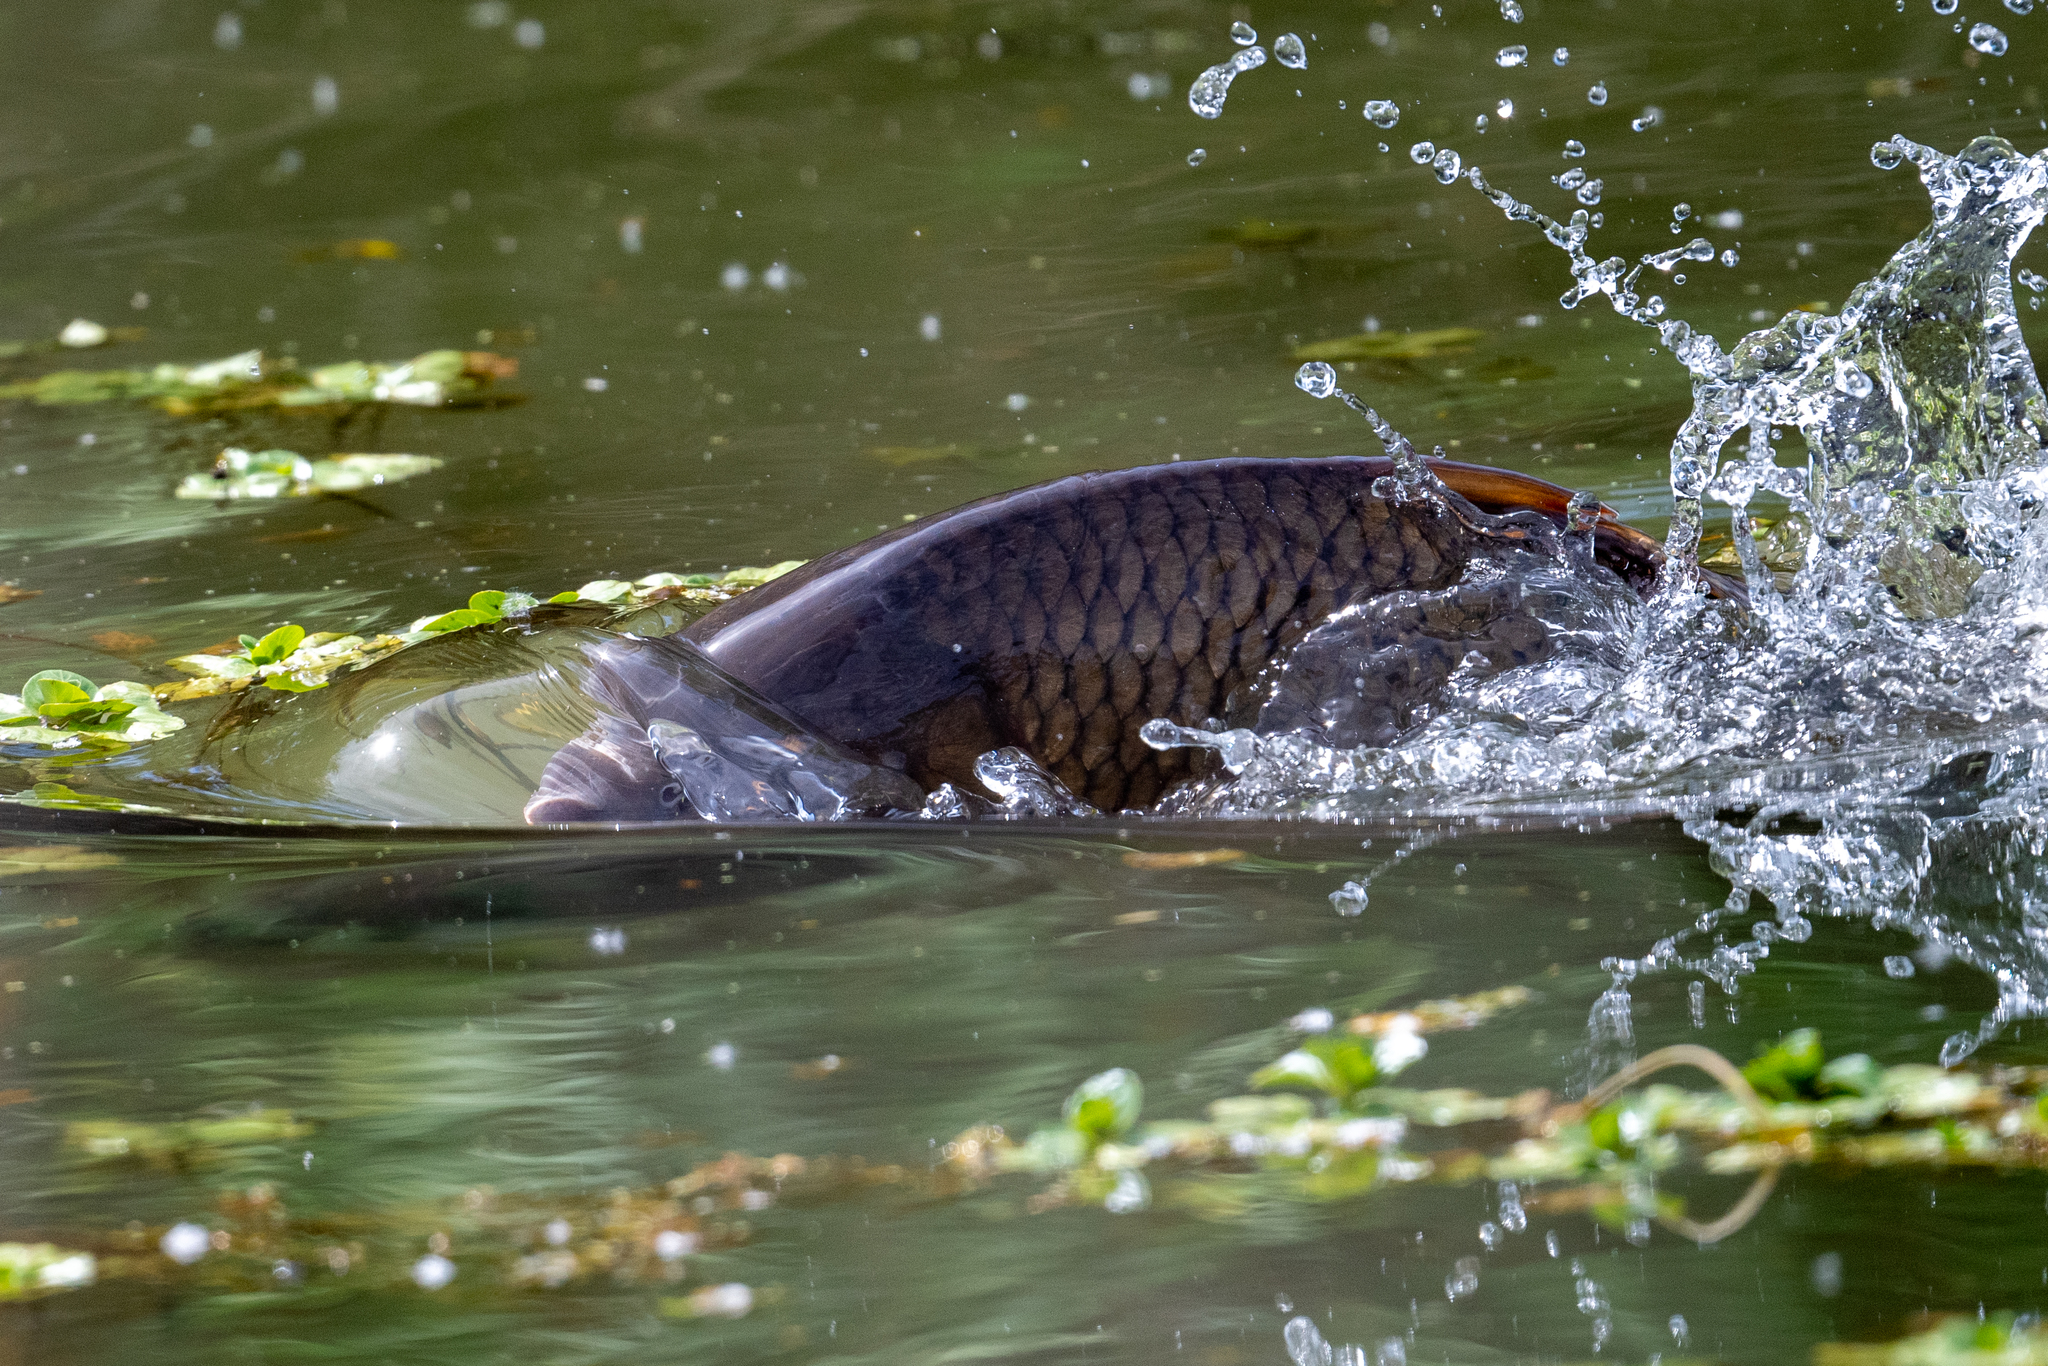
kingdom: Animalia
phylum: Chordata
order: Cypriniformes
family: Cyprinidae
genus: Cyprinus
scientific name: Cyprinus carpio
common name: Common carp
